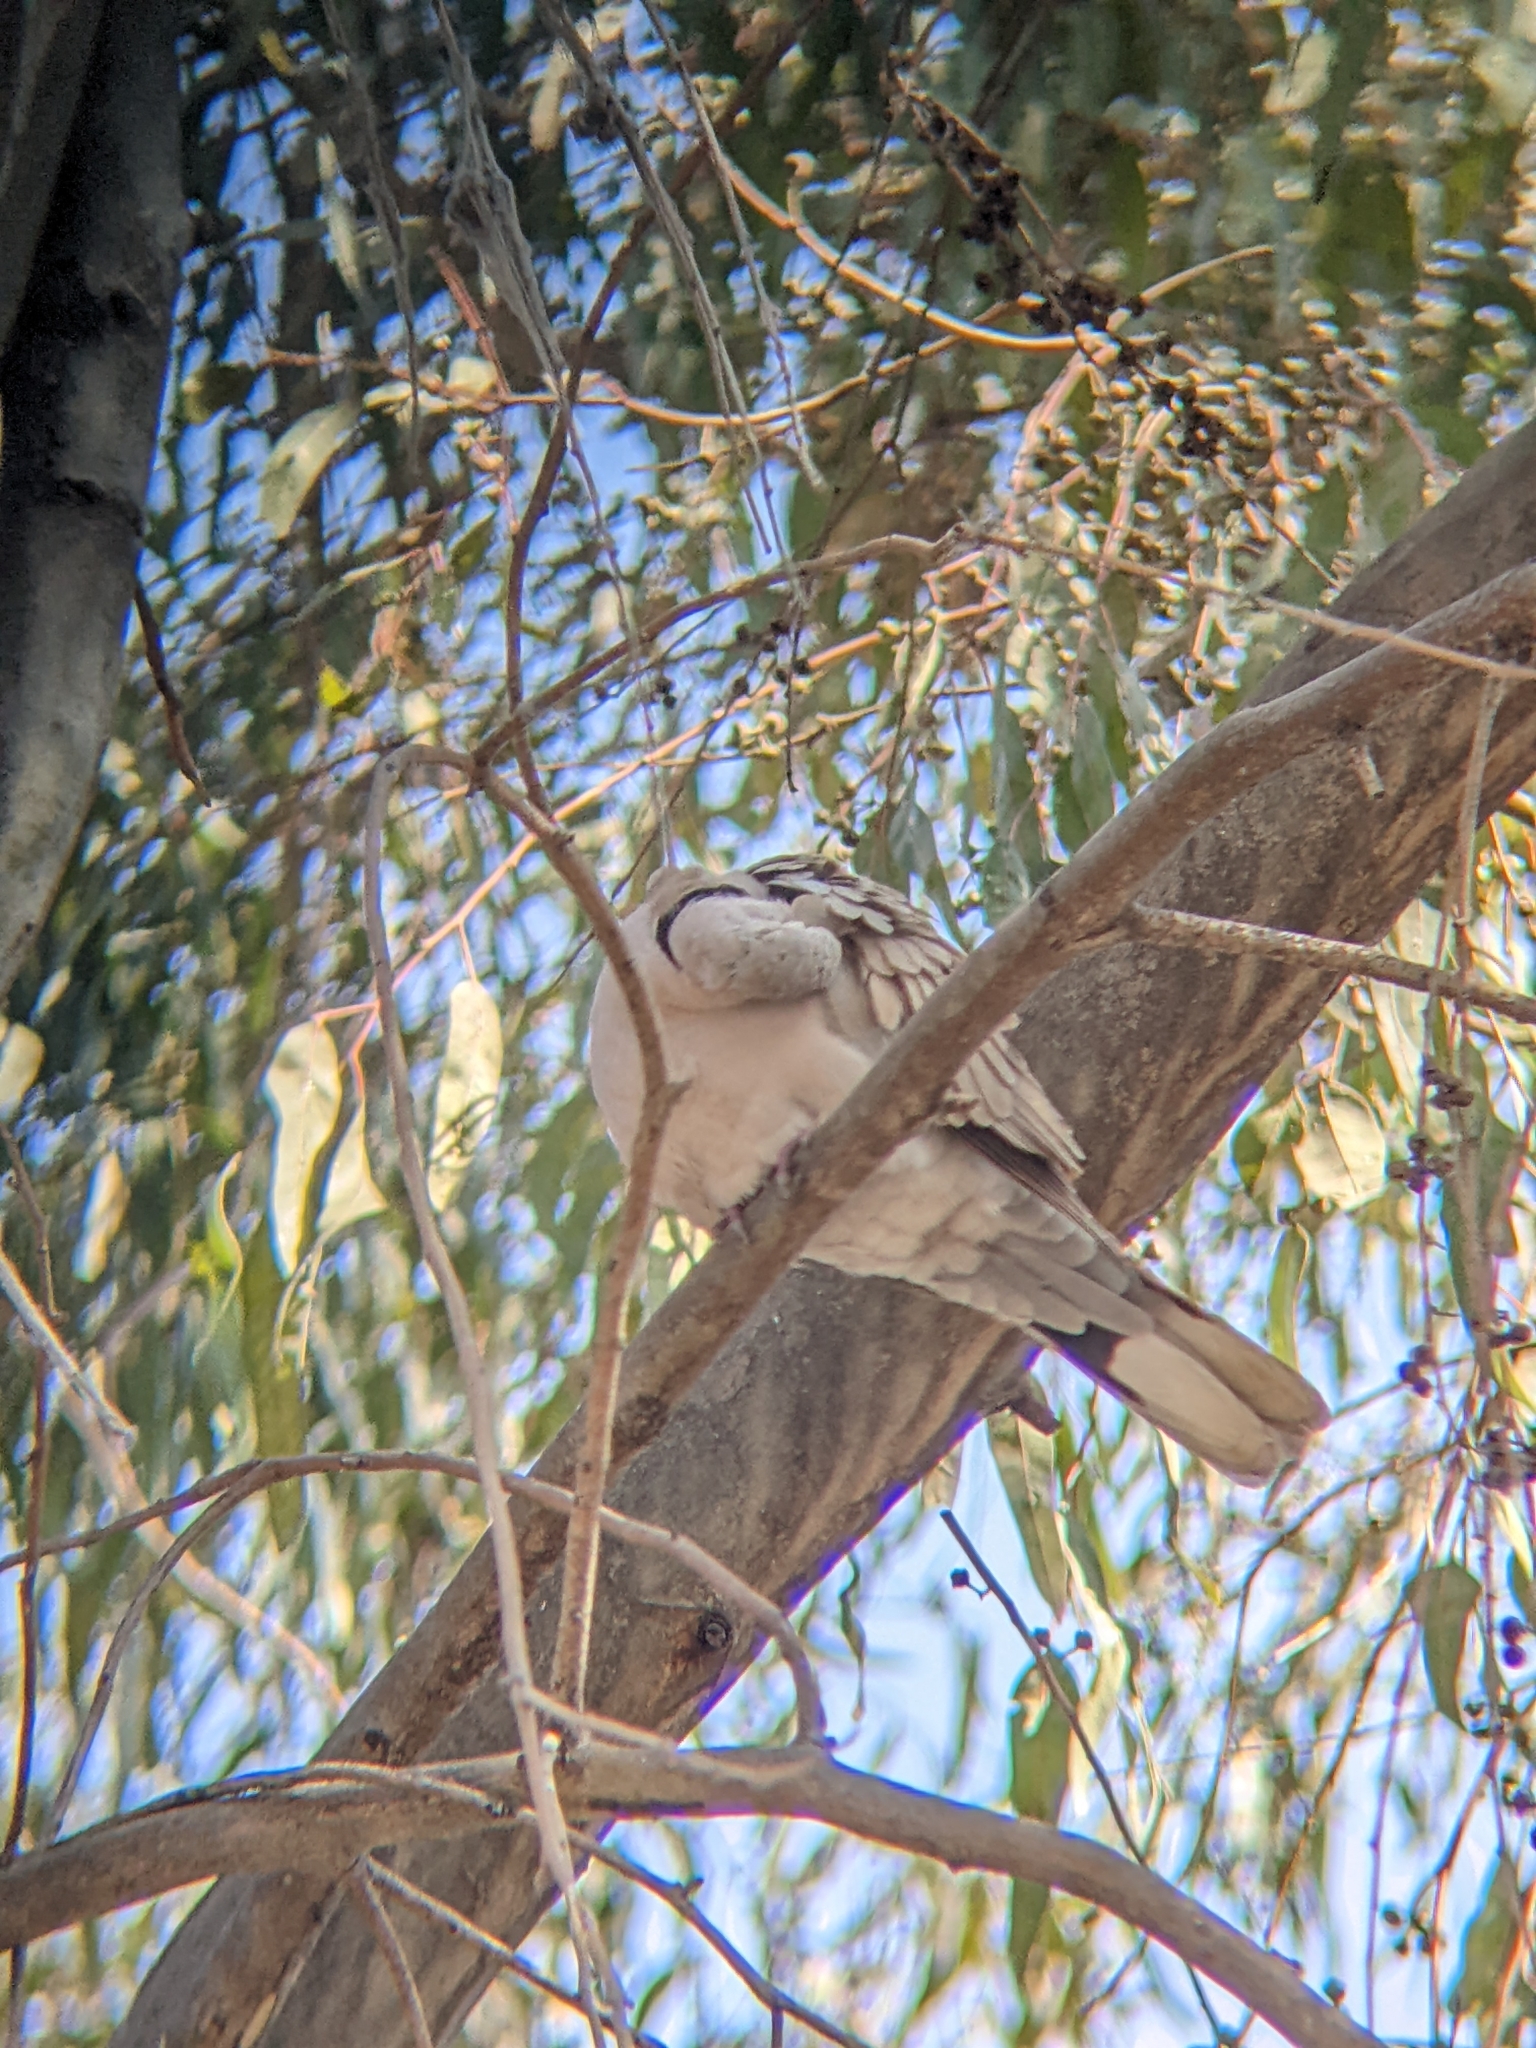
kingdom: Animalia
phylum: Chordata
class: Aves
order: Columbiformes
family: Columbidae
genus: Streptopelia
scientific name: Streptopelia decaocto
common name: Eurasian collared dove
